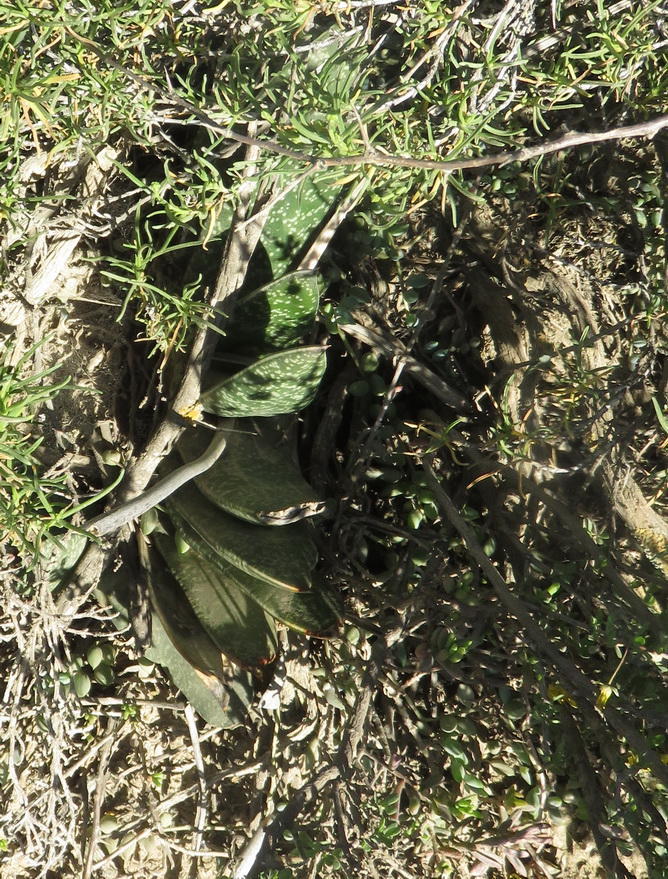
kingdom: Plantae
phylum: Tracheophyta
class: Liliopsida
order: Asparagales
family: Asphodelaceae
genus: Gasteria
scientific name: Gasteria brachyphylla
